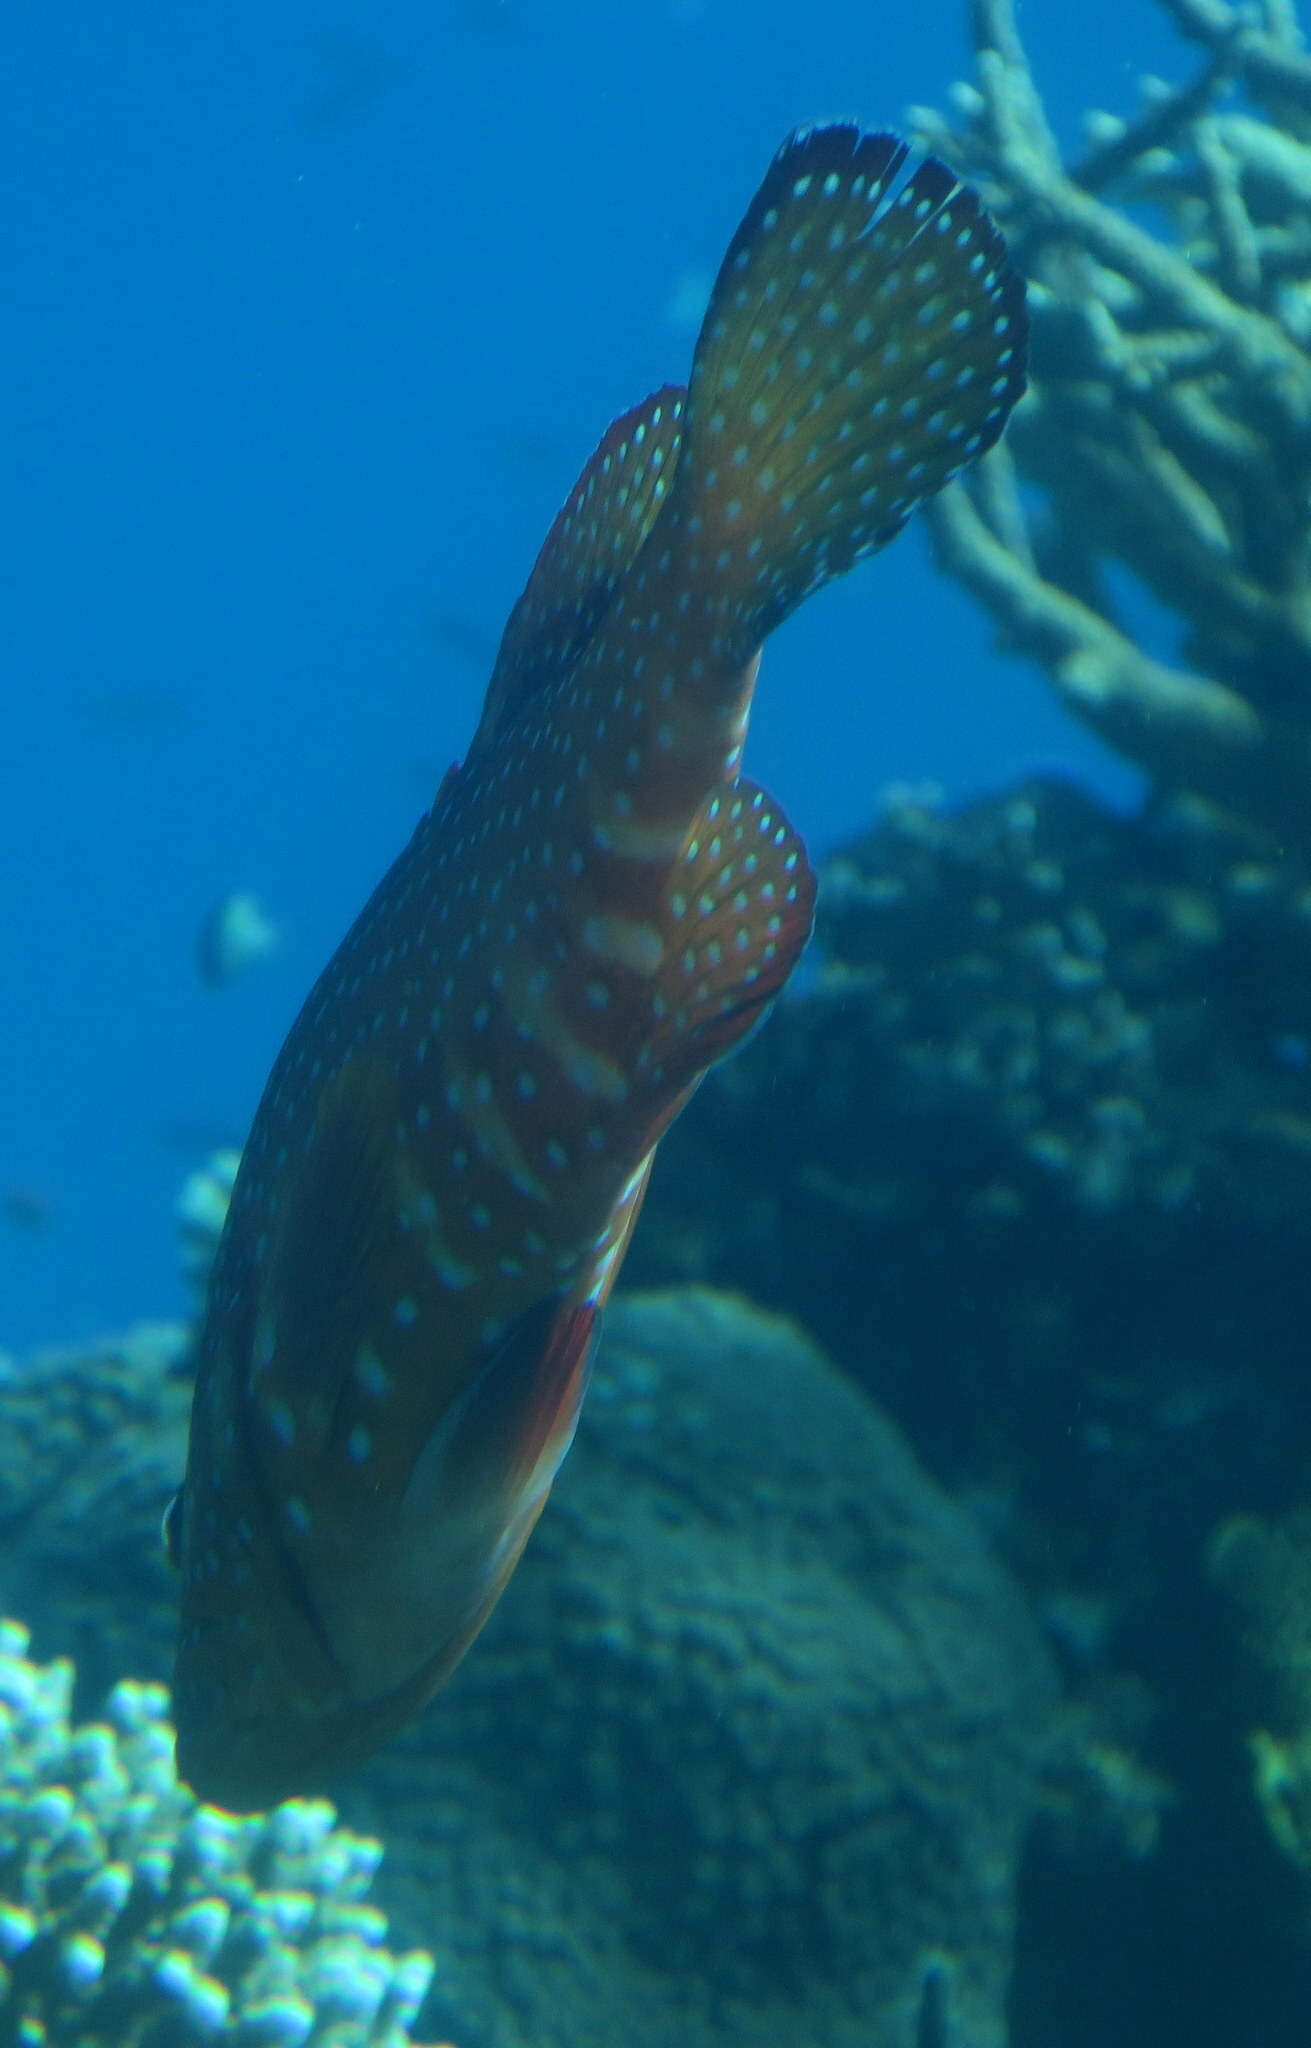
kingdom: Animalia
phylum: Chordata
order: Perciformes
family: Serranidae
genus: Cephalopholis
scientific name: Cephalopholis miniata
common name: Coral hind
